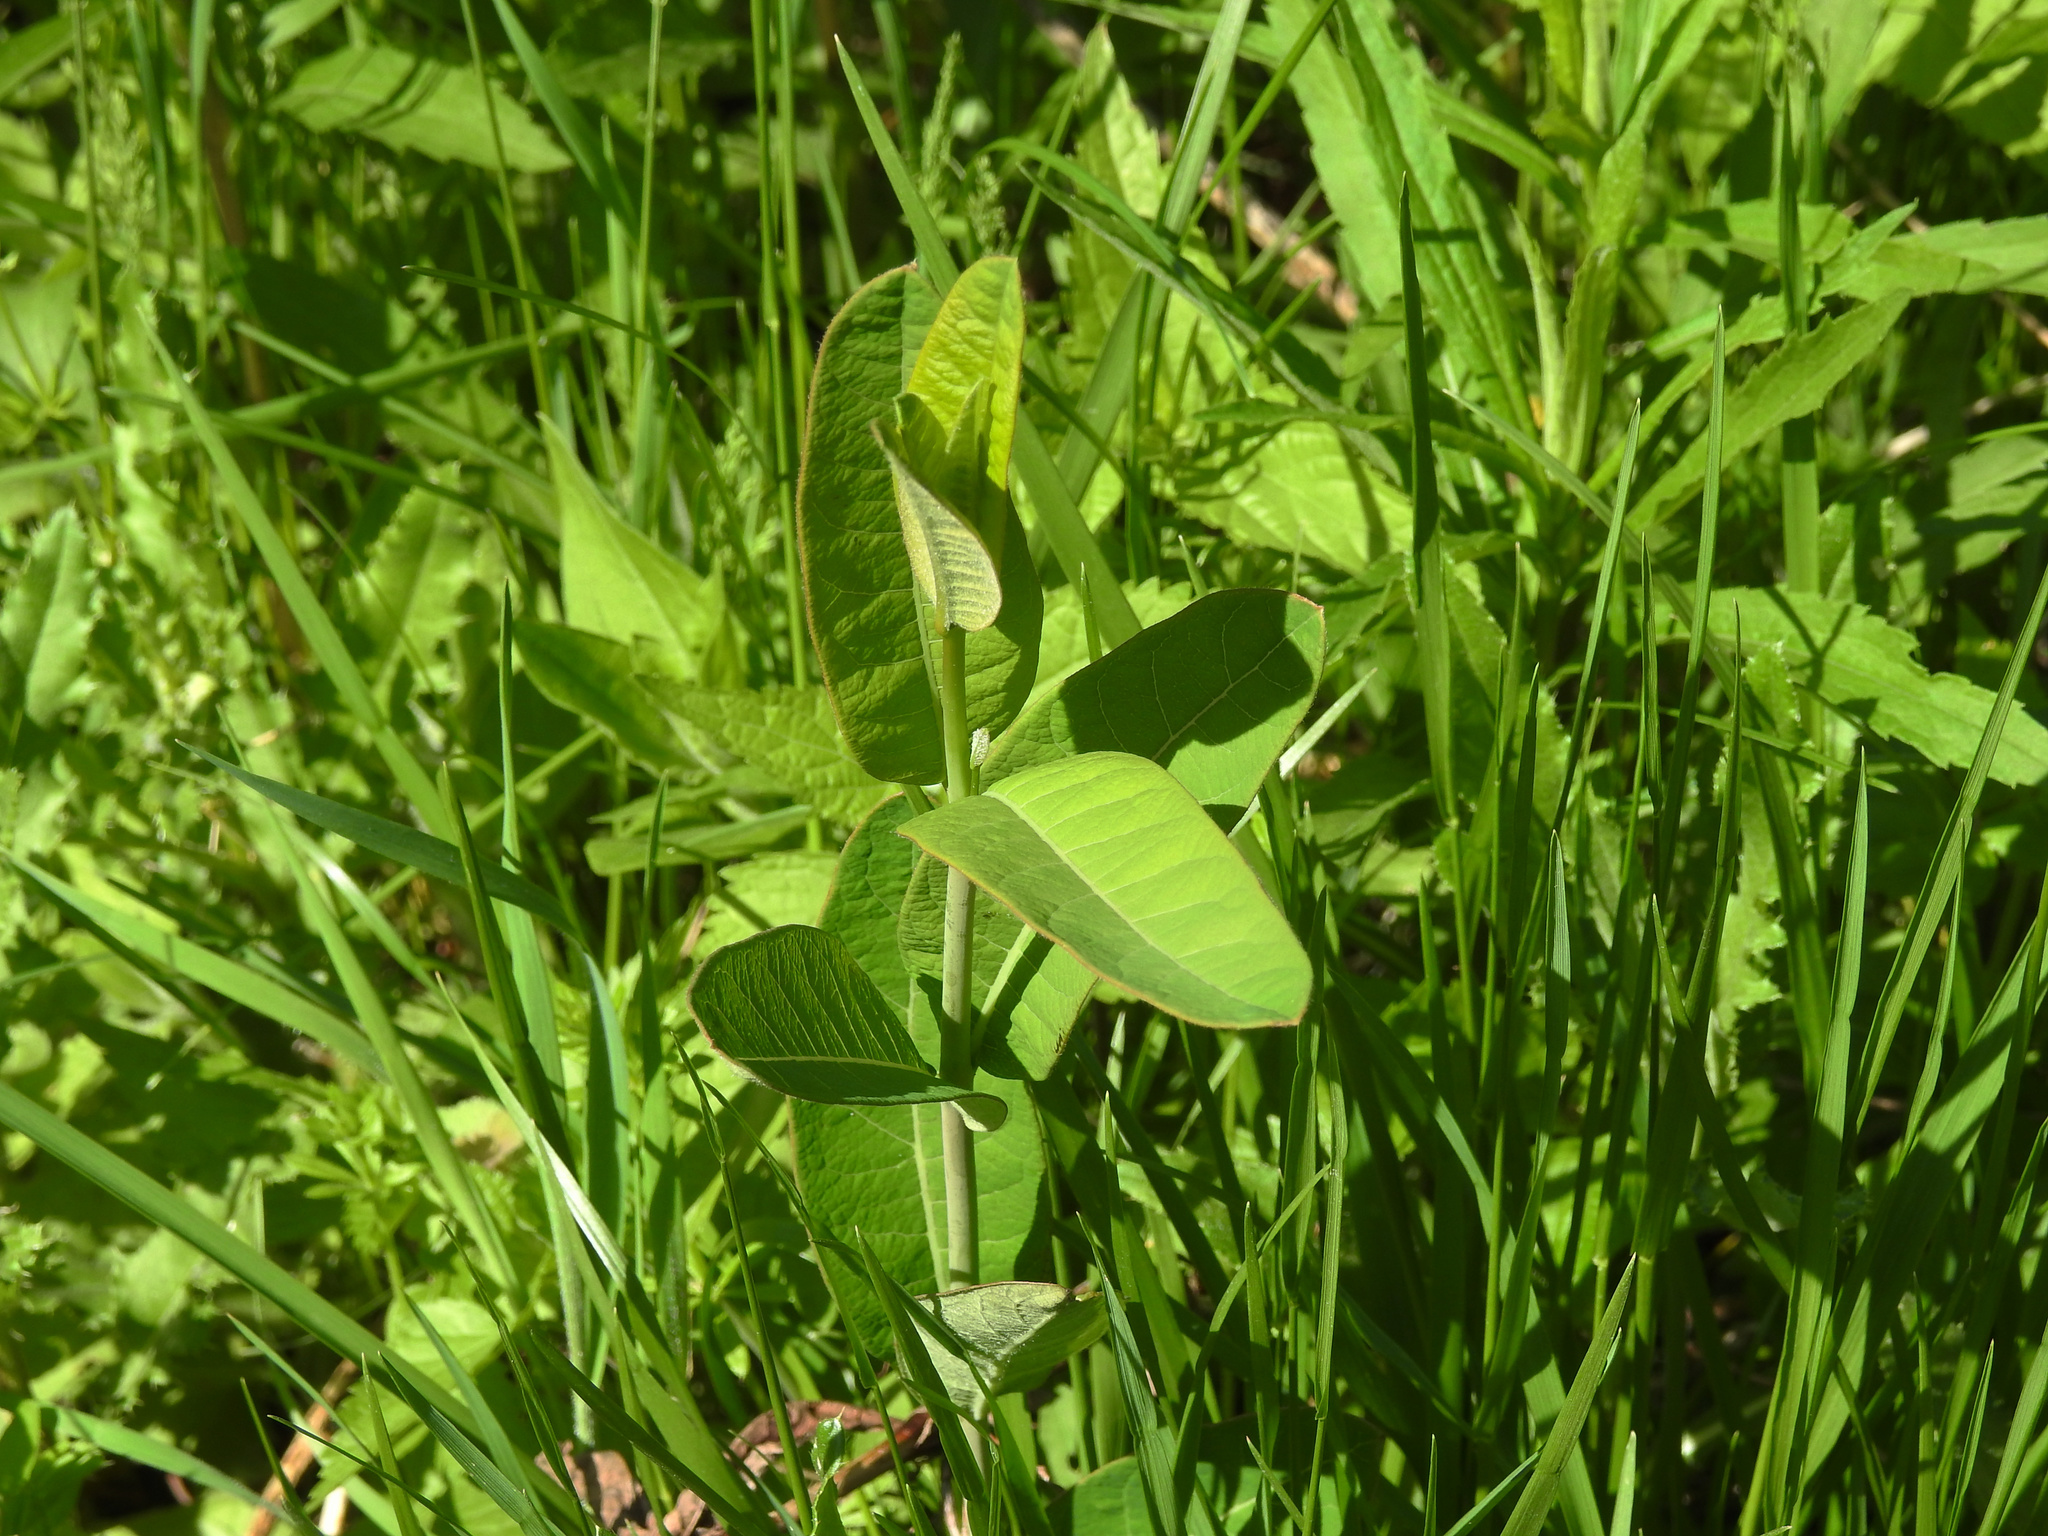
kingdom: Plantae
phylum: Tracheophyta
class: Magnoliopsida
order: Gentianales
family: Apocynaceae
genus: Apocynum
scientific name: Apocynum cannabinum
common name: Hemp dogbane
